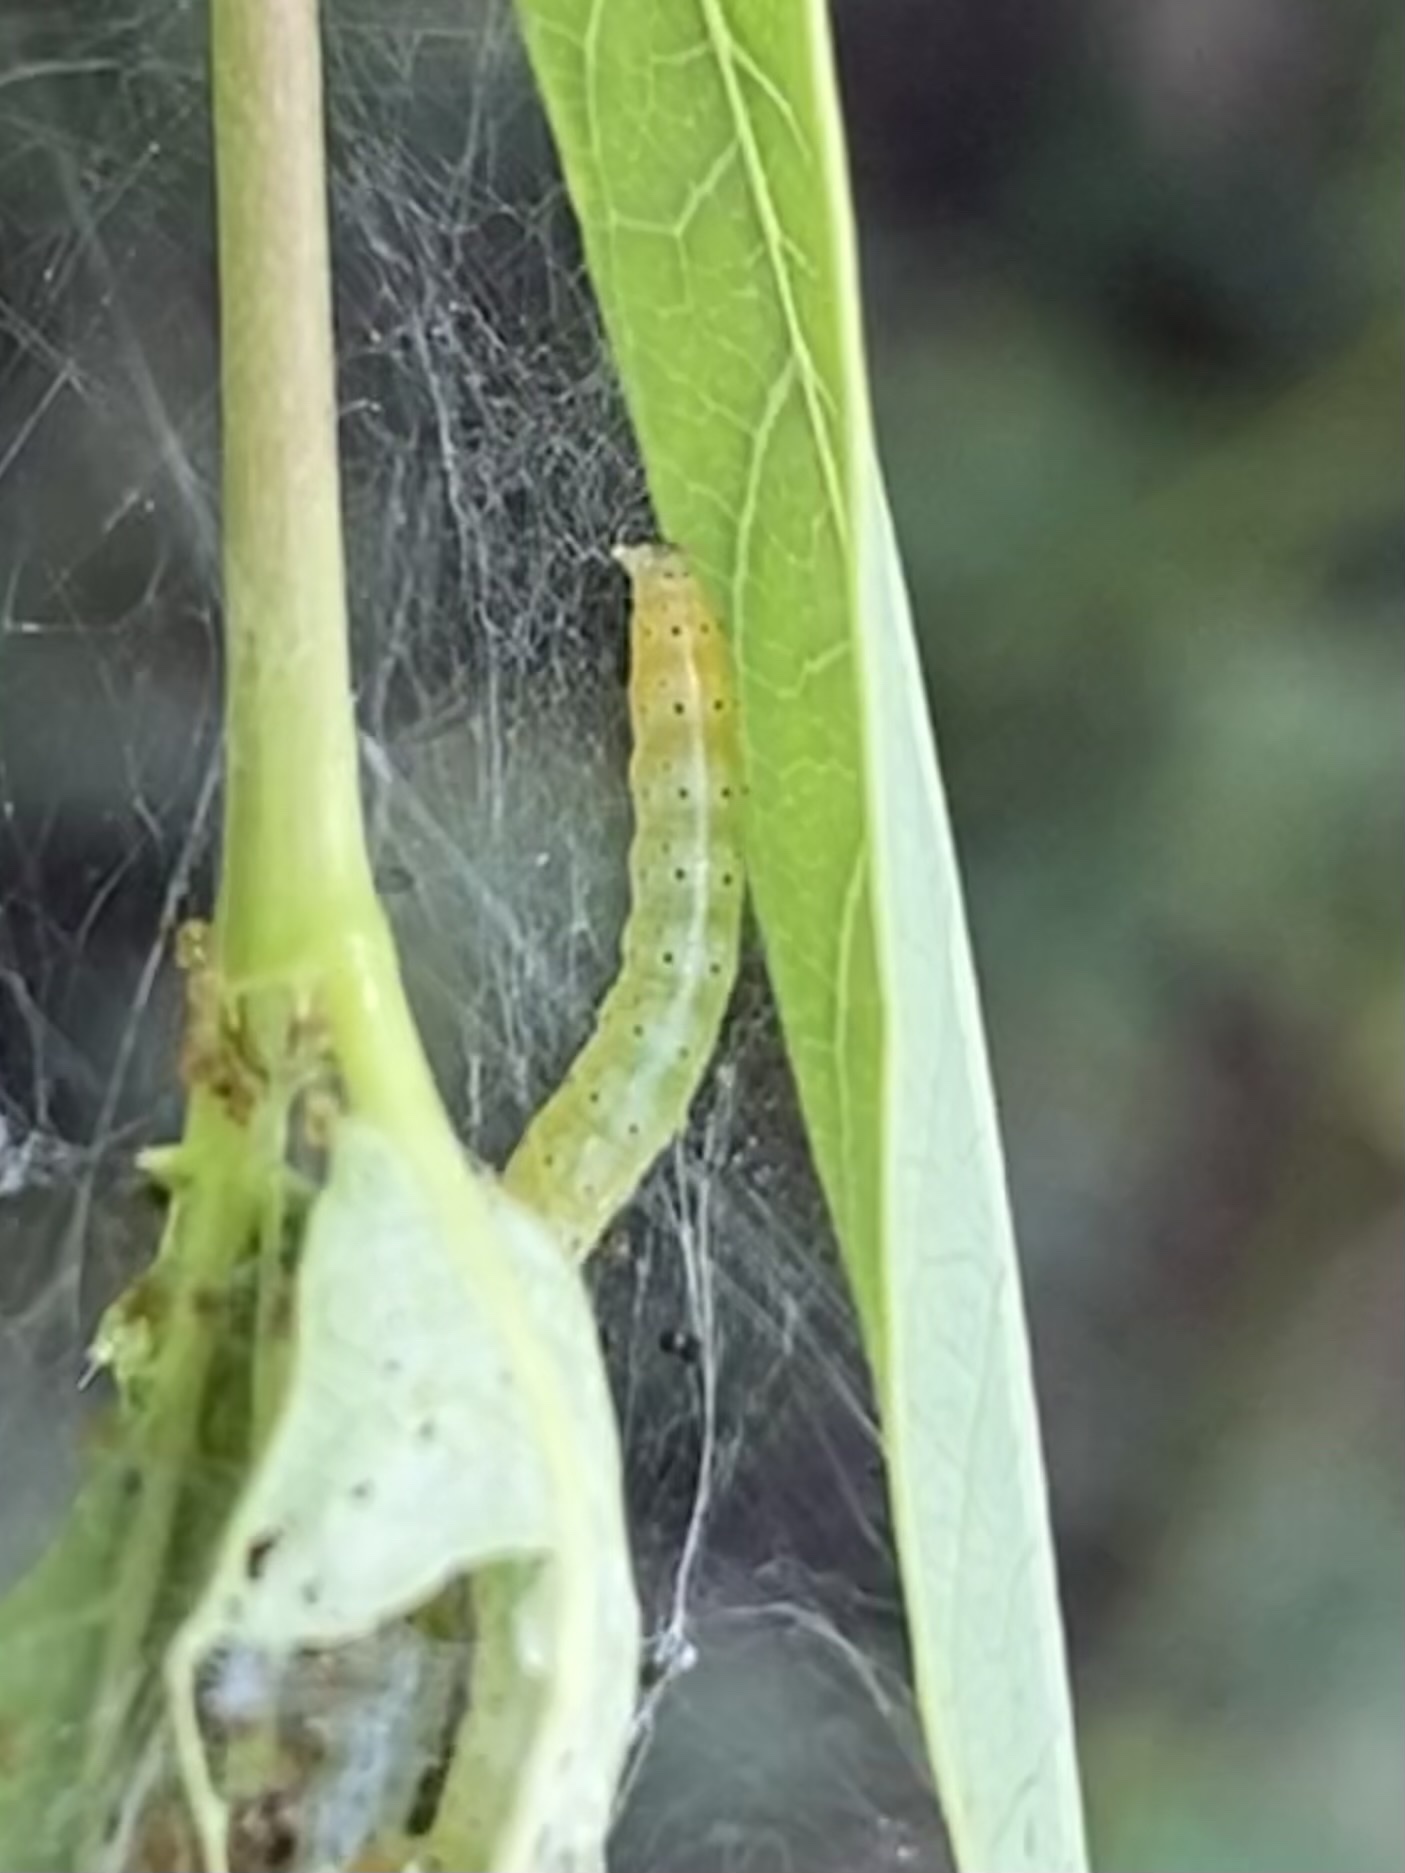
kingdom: Animalia
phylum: Arthropoda
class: Insecta
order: Lepidoptera
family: Crambidae
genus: Saucrobotys
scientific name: Saucrobotys futilalis
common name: Dogbane saucrobotys moth
